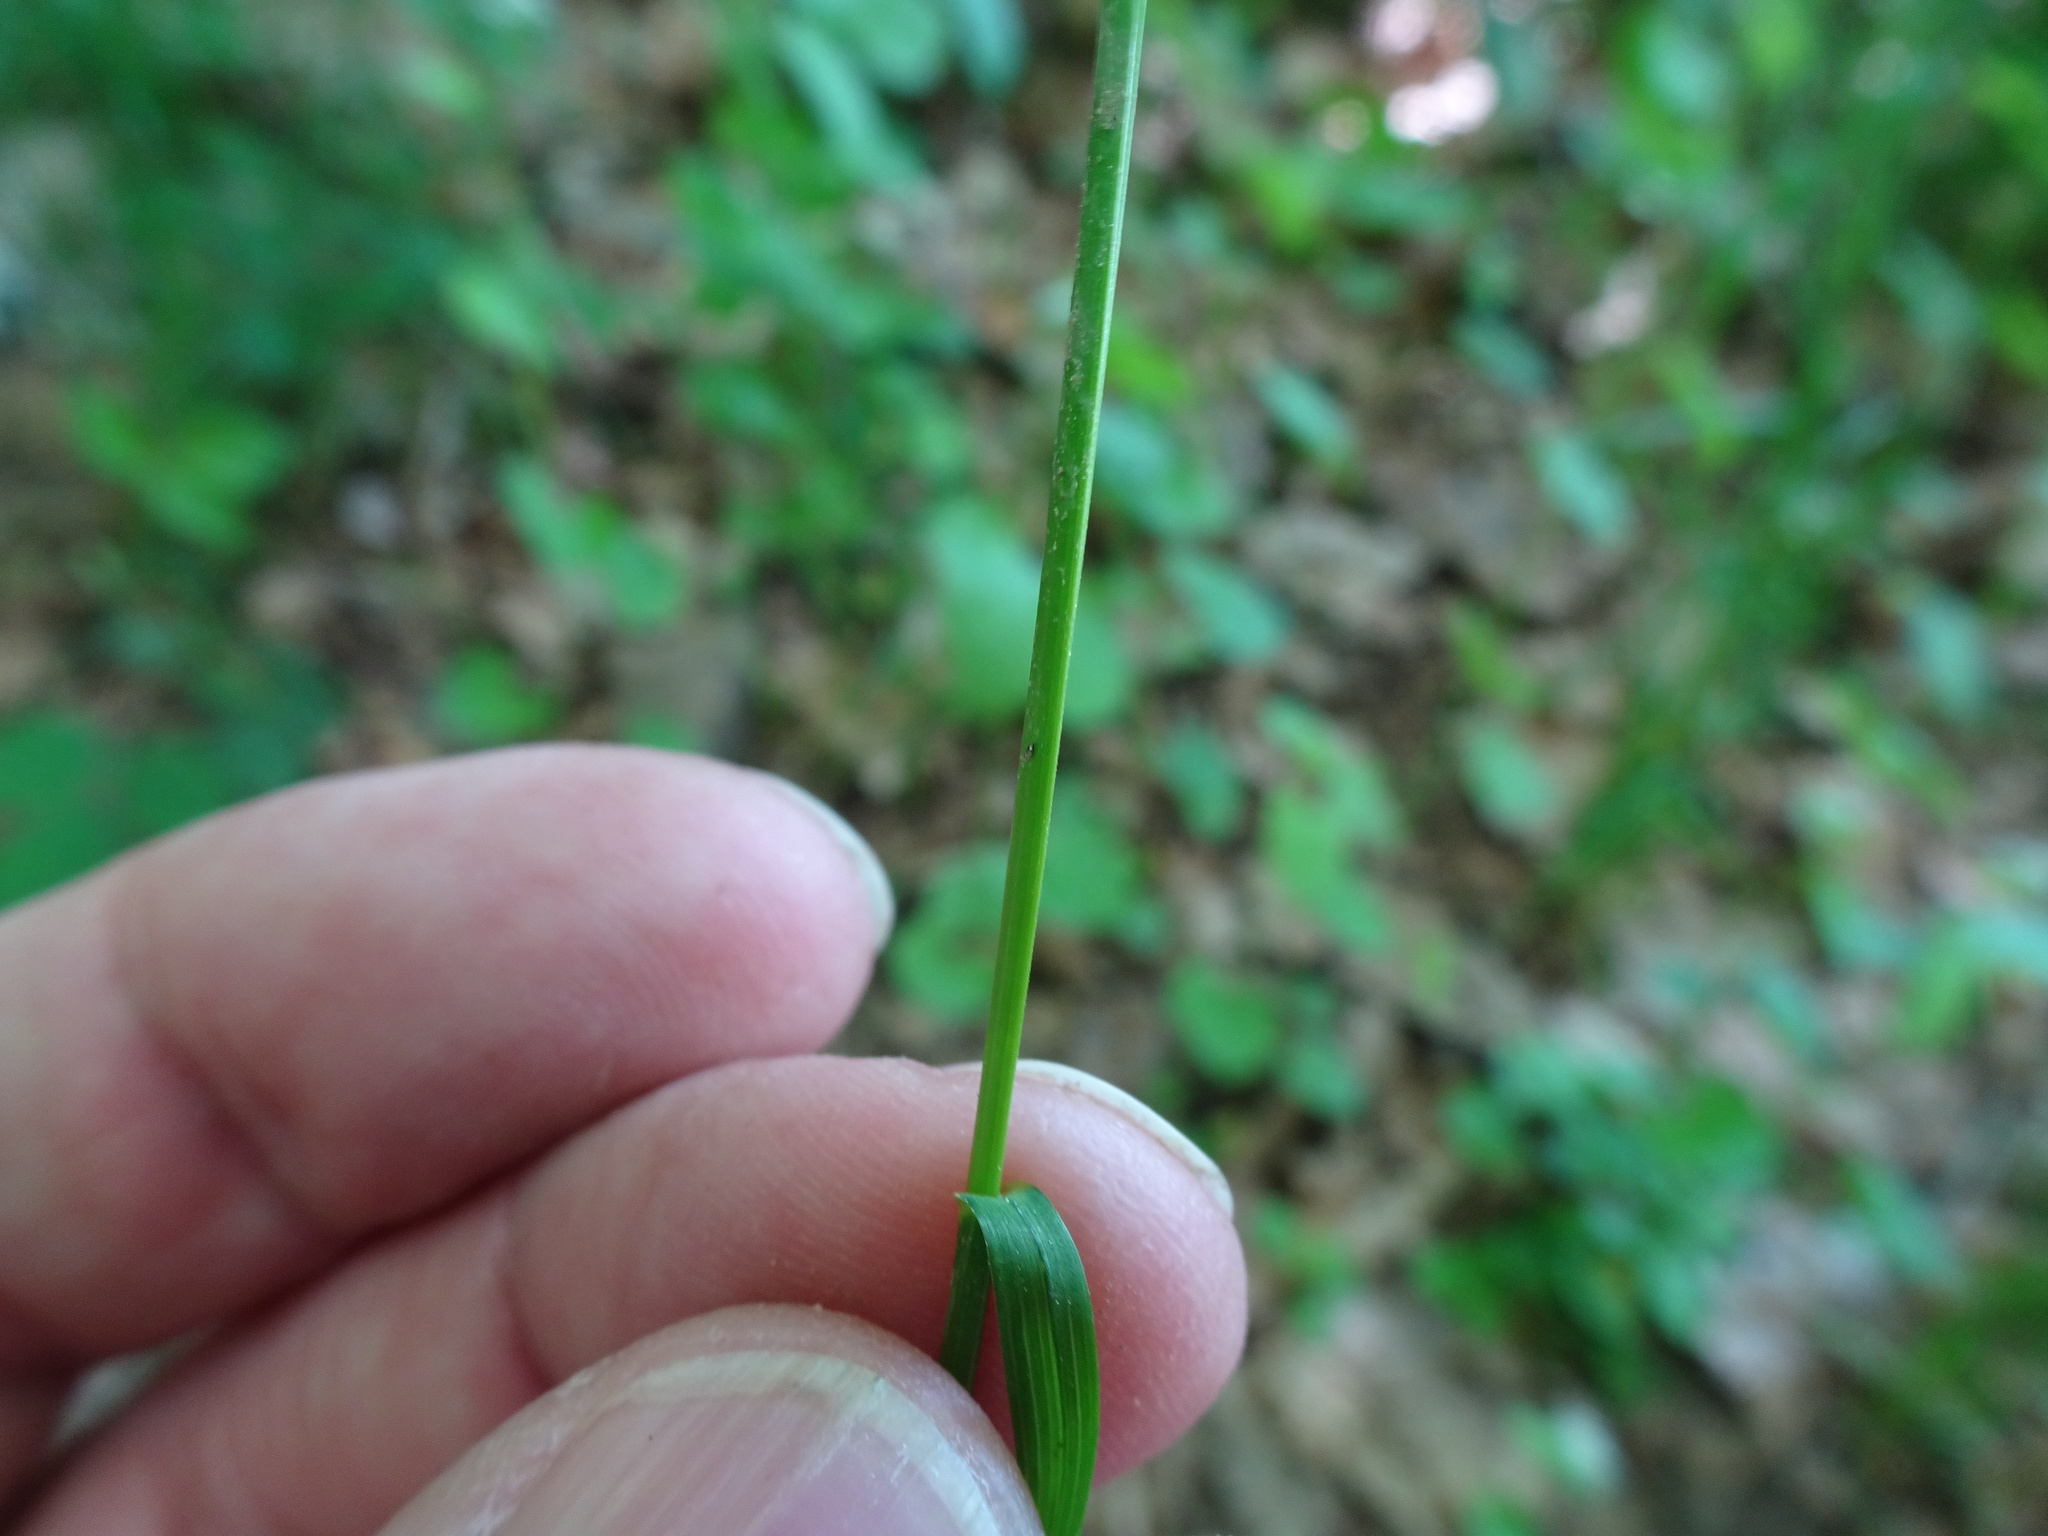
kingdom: Plantae
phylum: Tracheophyta
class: Liliopsida
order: Poales
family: Poaceae
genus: Poa
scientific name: Poa nemoralis
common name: Wood bluegrass
